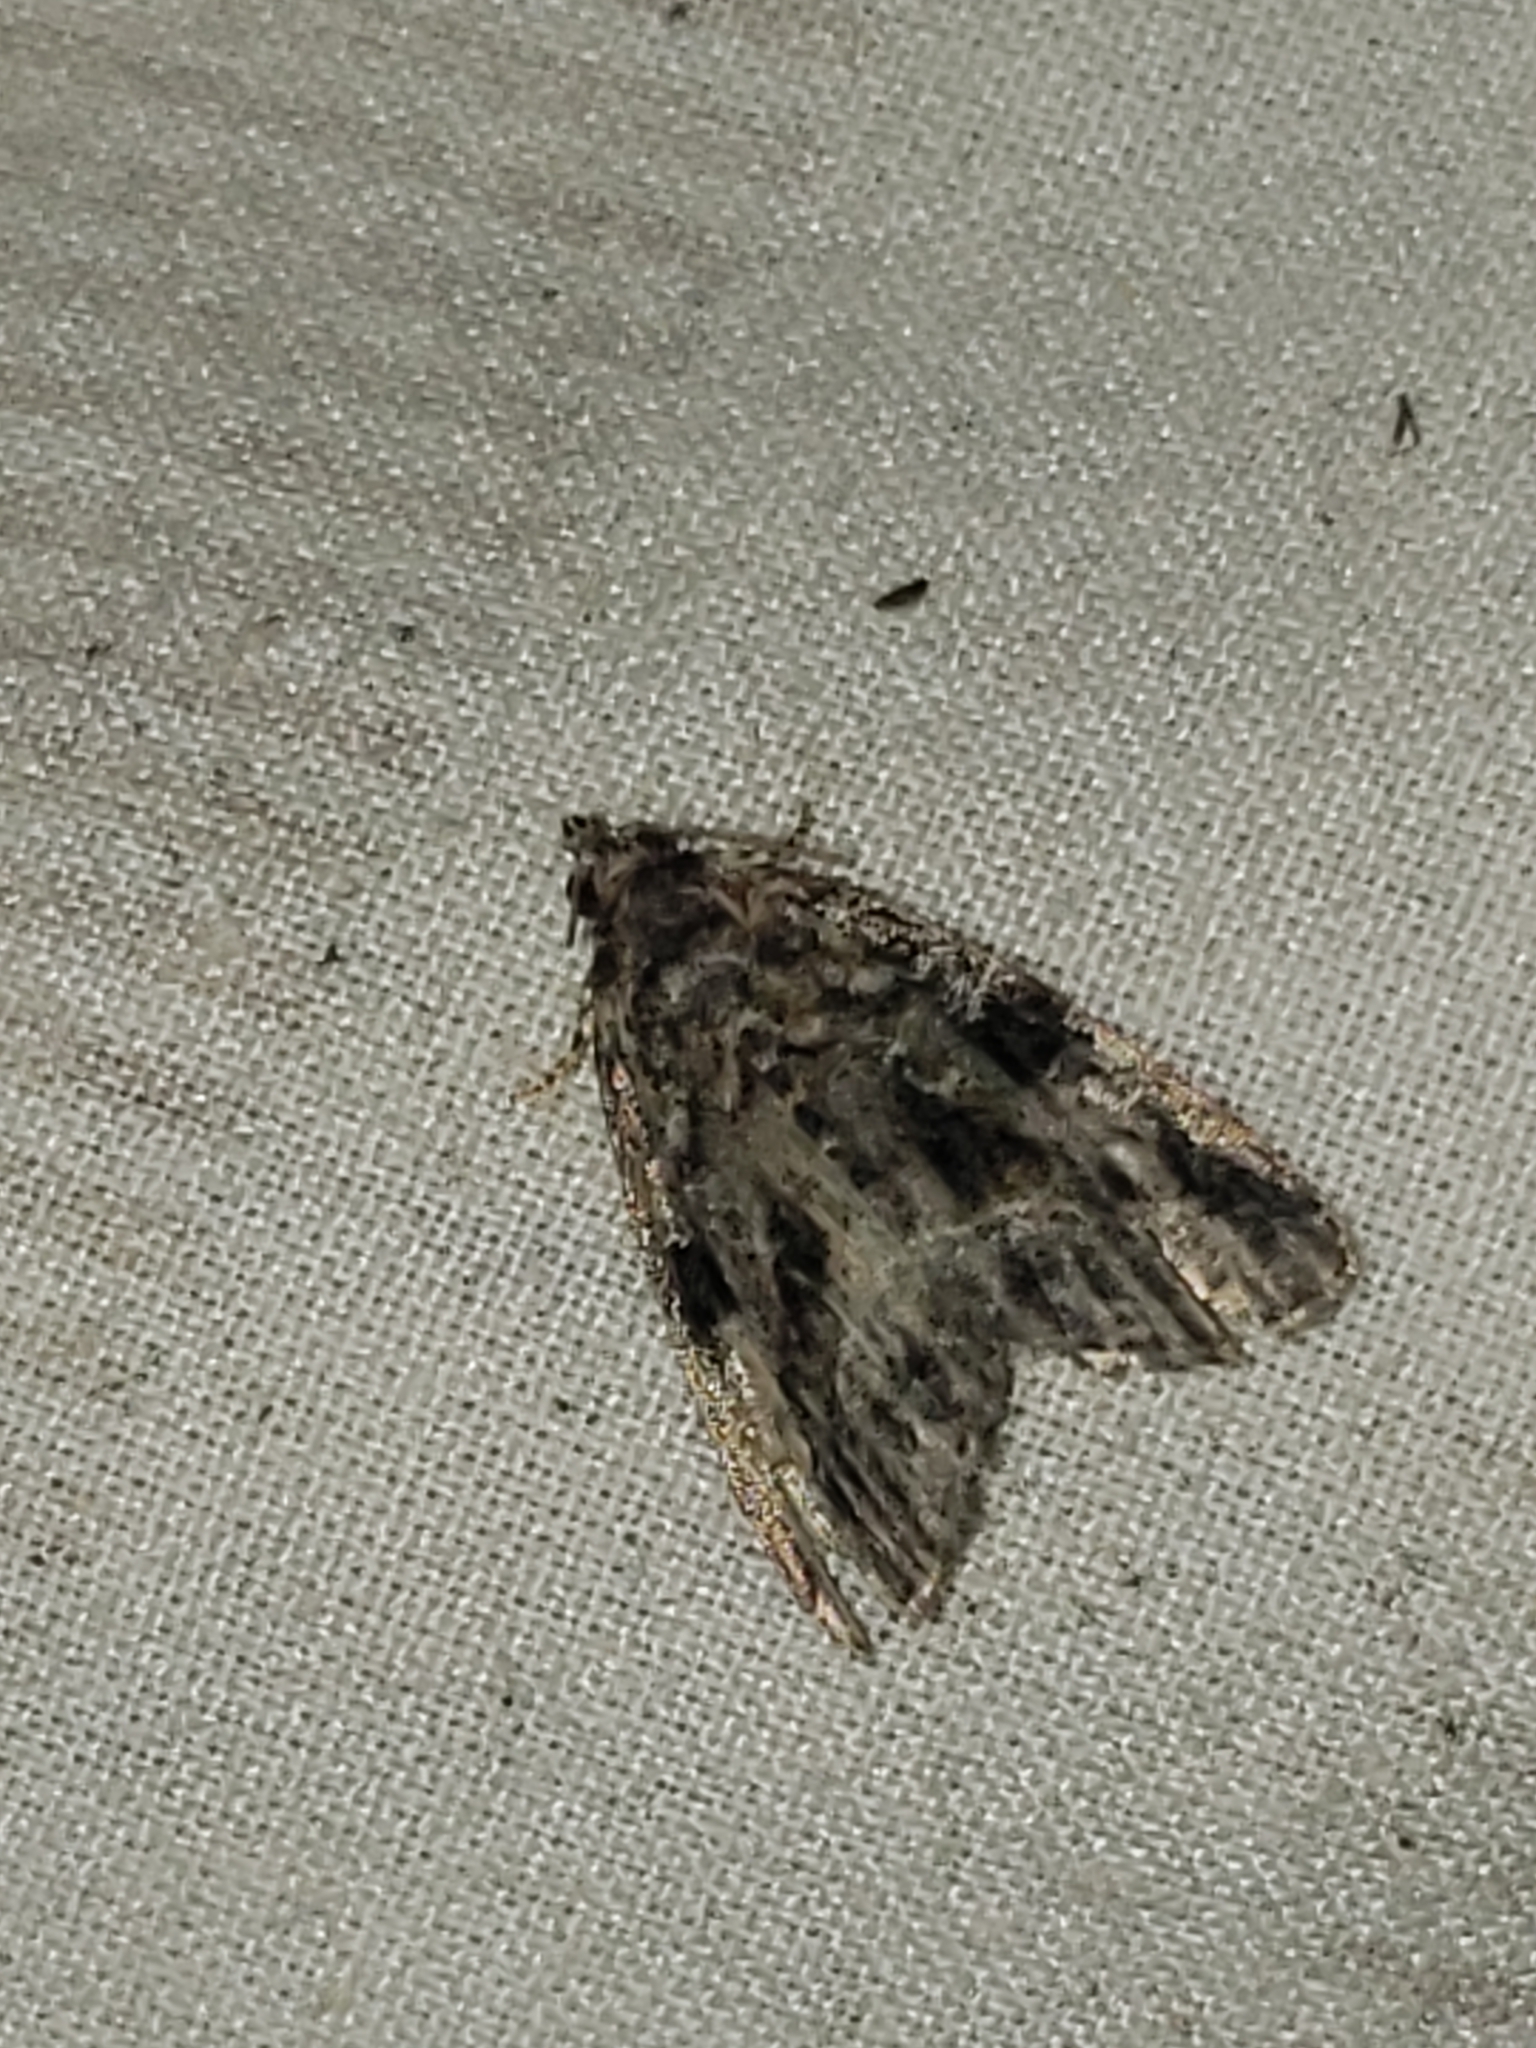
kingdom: Animalia
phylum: Arthropoda
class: Insecta
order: Lepidoptera
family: Noctuidae
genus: Protodeltote
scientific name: Protodeltote muscosula
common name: Large mossy glyph
